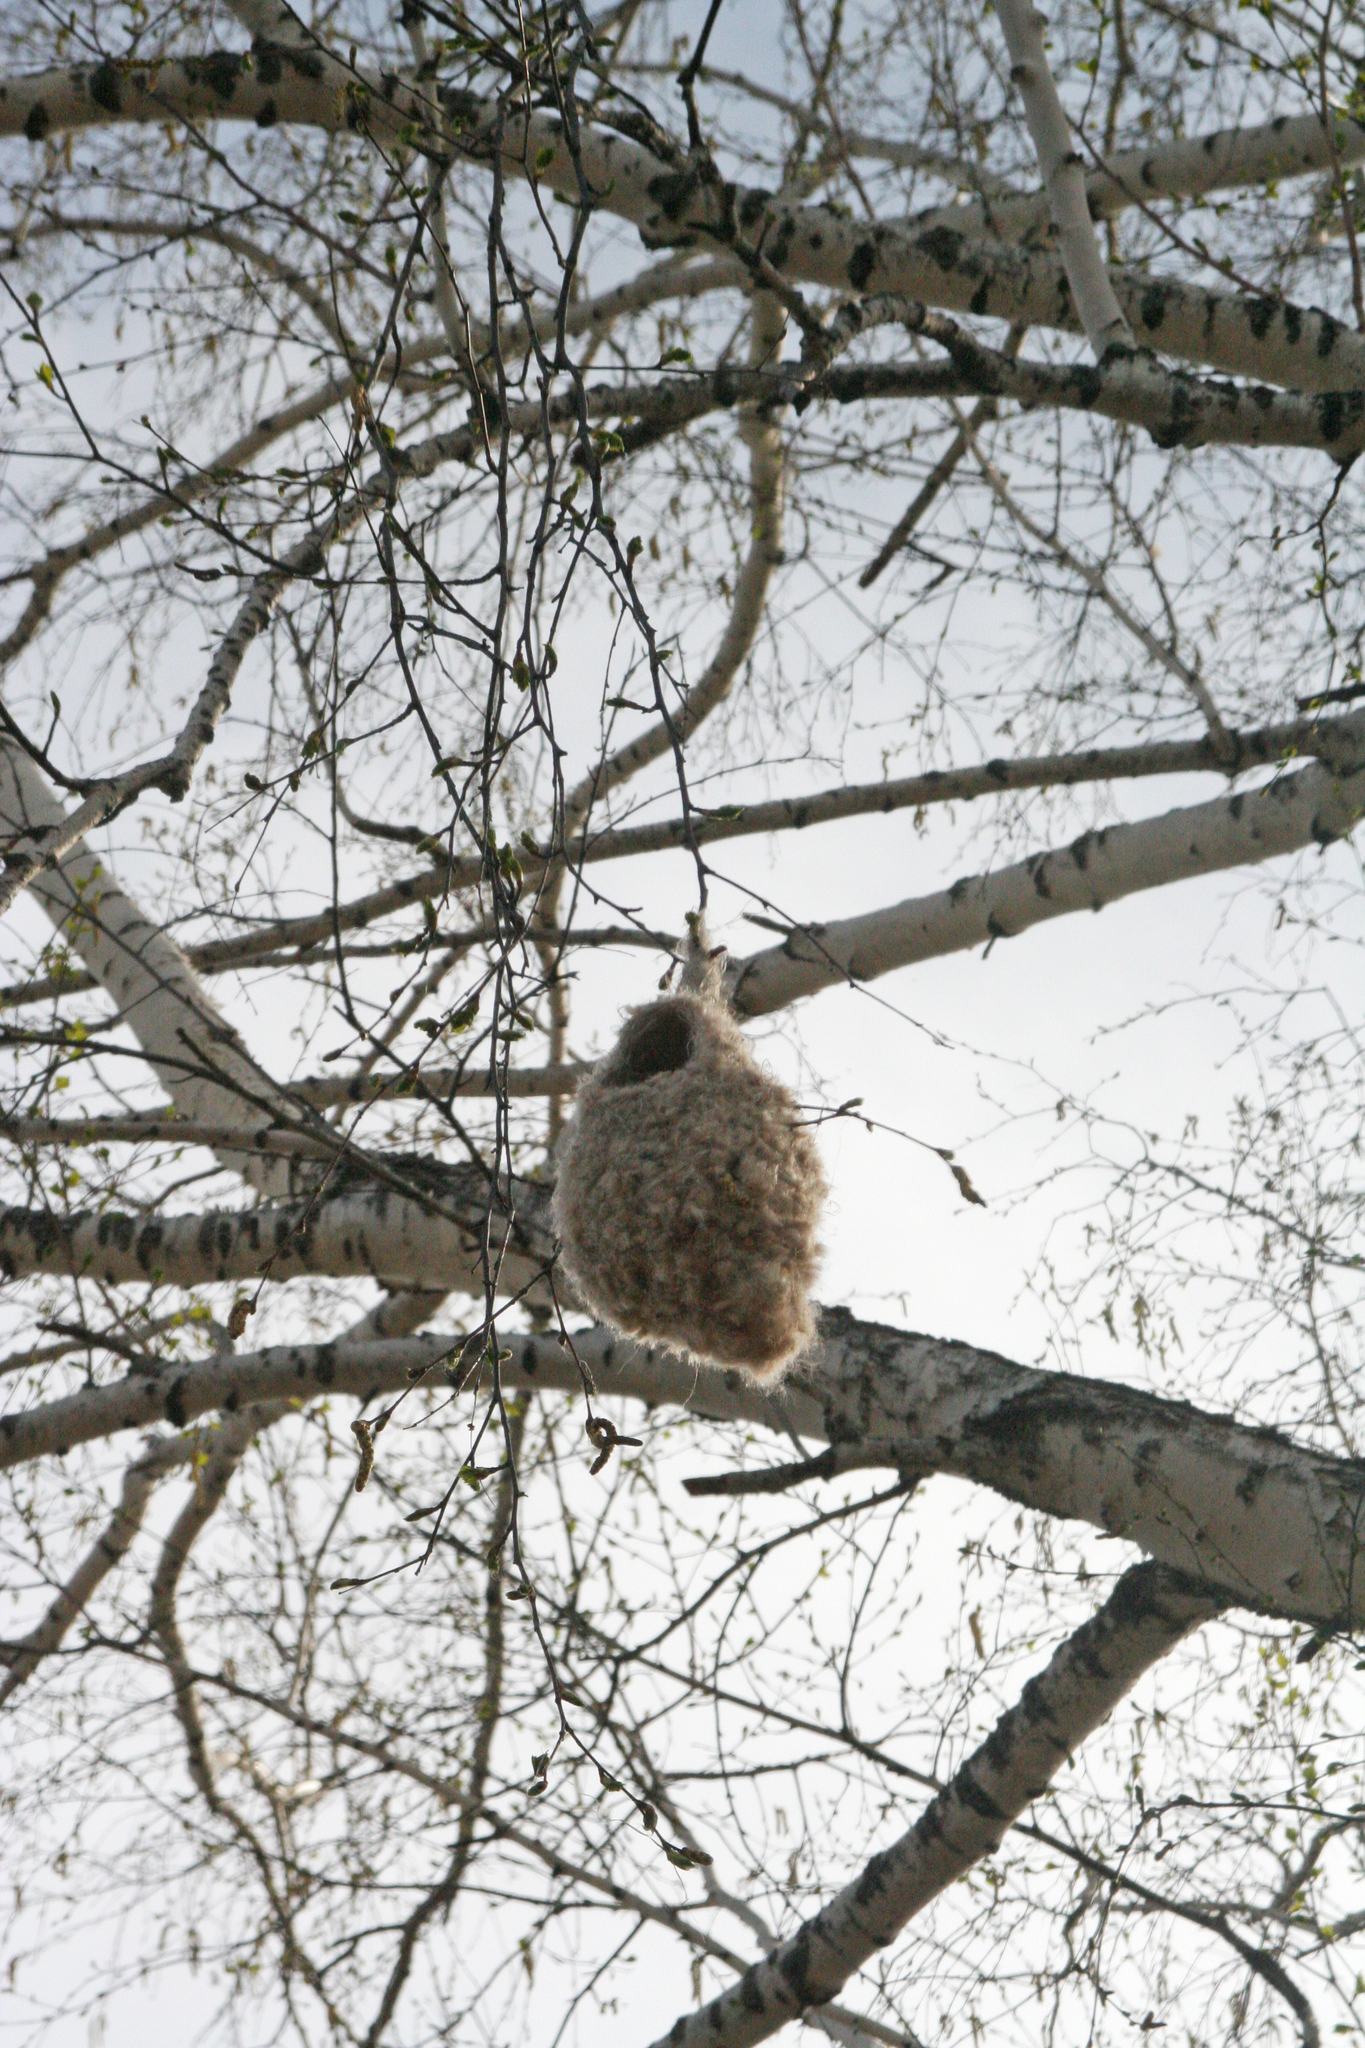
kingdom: Animalia
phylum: Chordata
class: Aves
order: Passeriformes
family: Remizidae
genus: Remiz
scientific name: Remiz pendulinus
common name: Eurasian penduline tit
